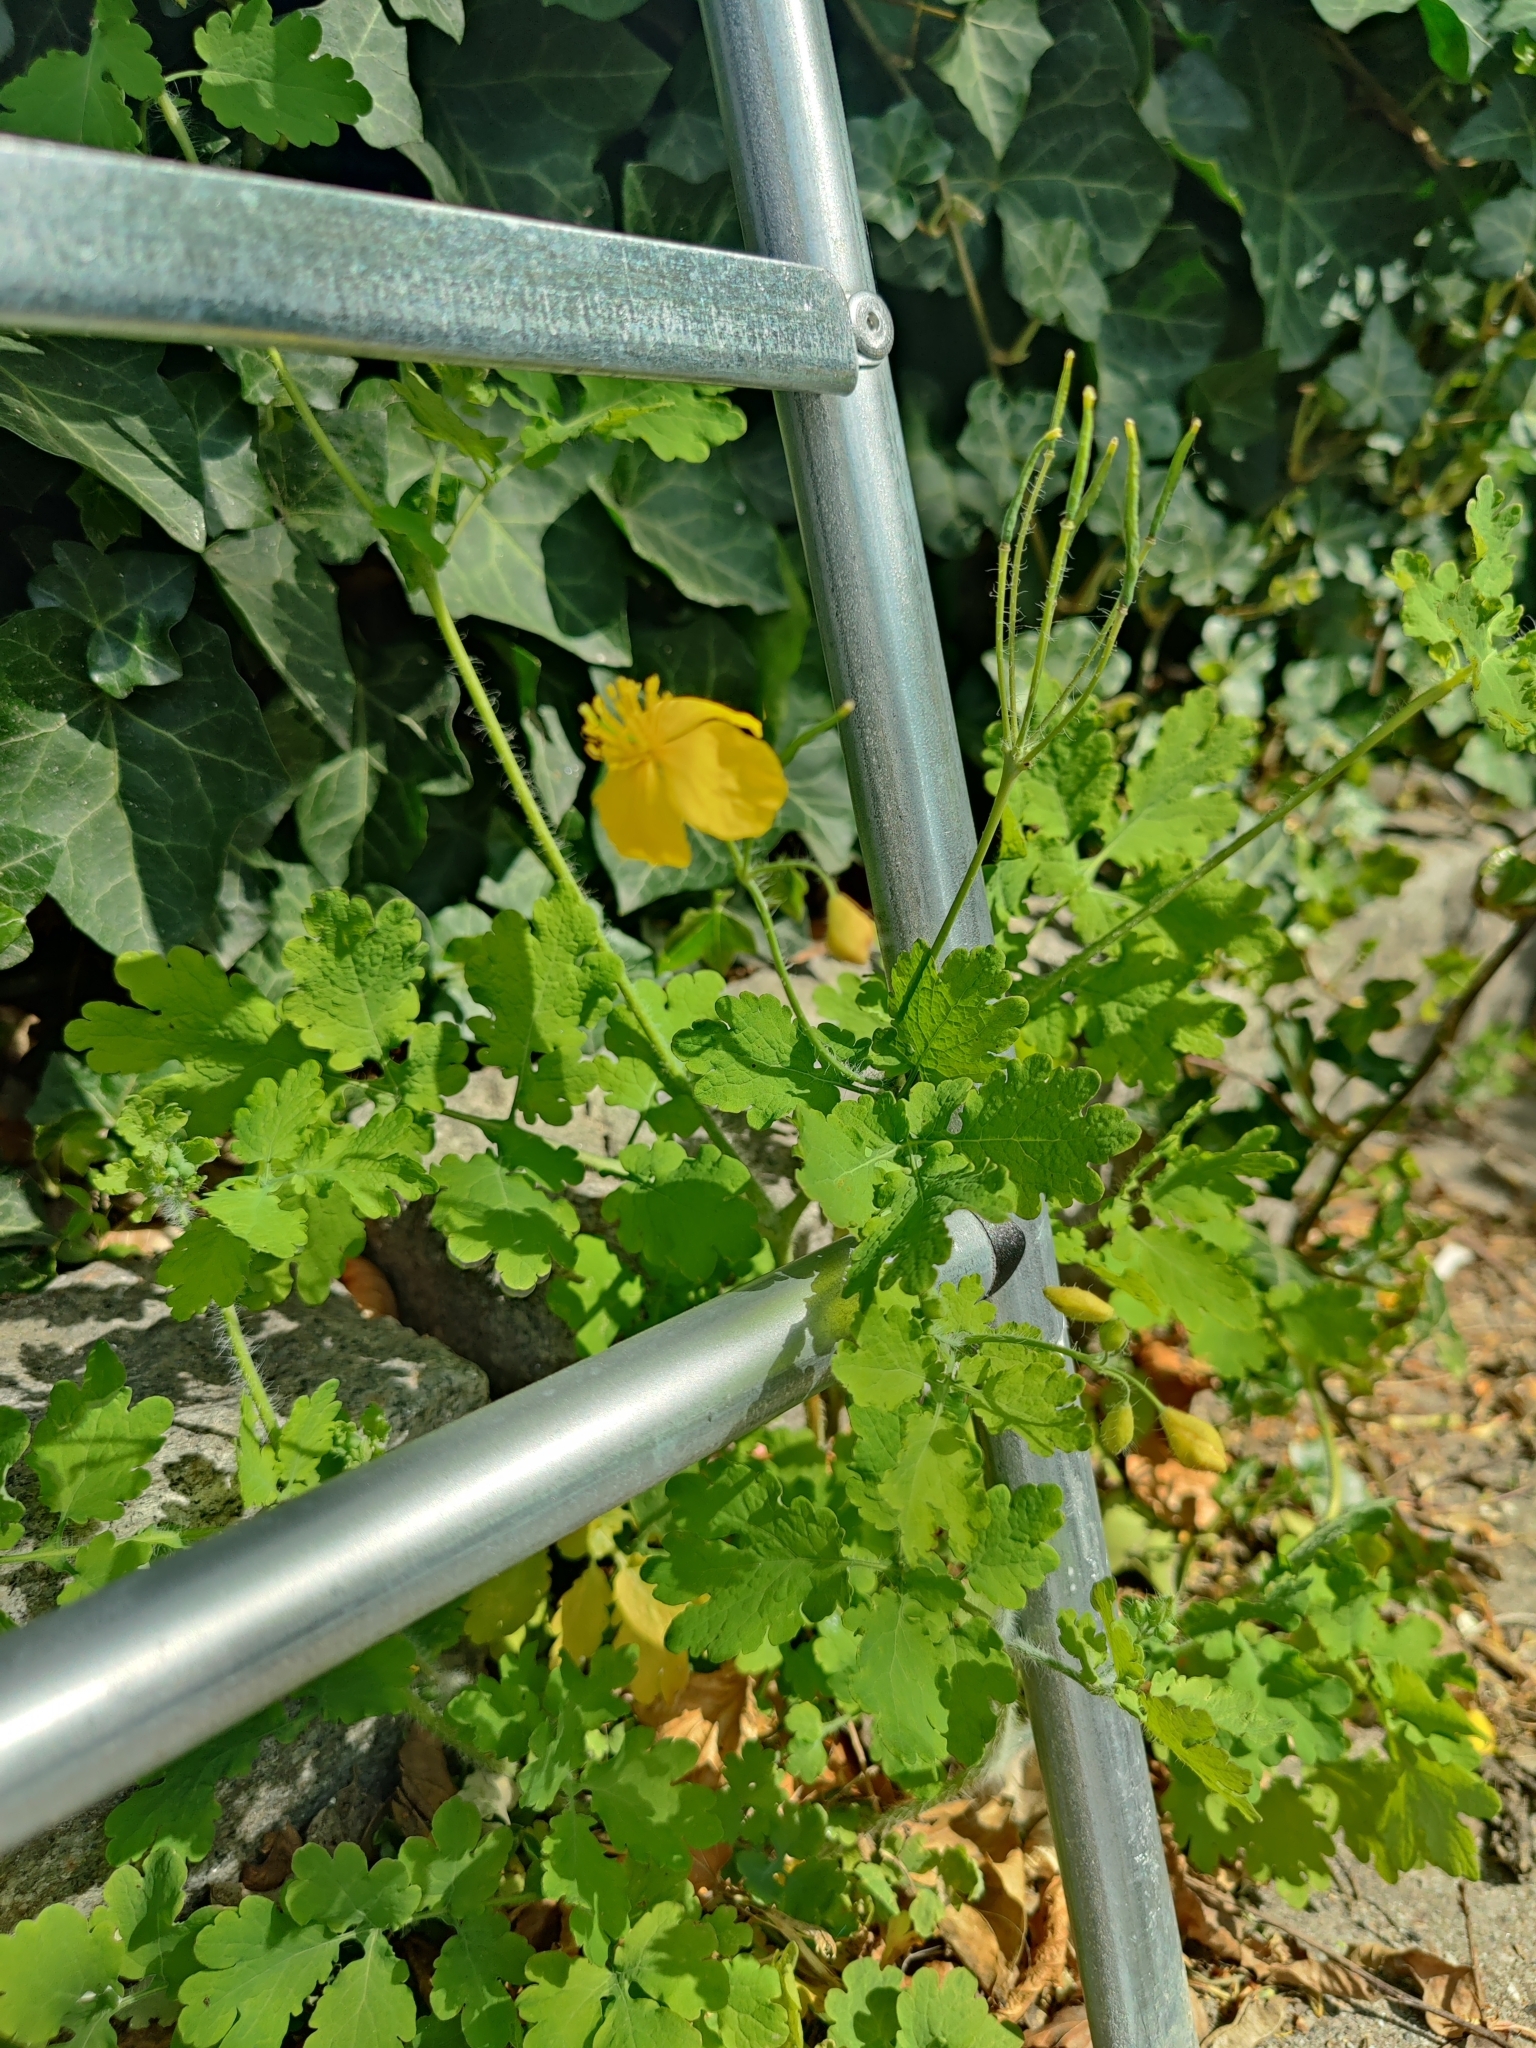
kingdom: Plantae
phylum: Tracheophyta
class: Magnoliopsida
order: Ranunculales
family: Papaveraceae
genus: Chelidonium
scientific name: Chelidonium majus
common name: Greater celandine
